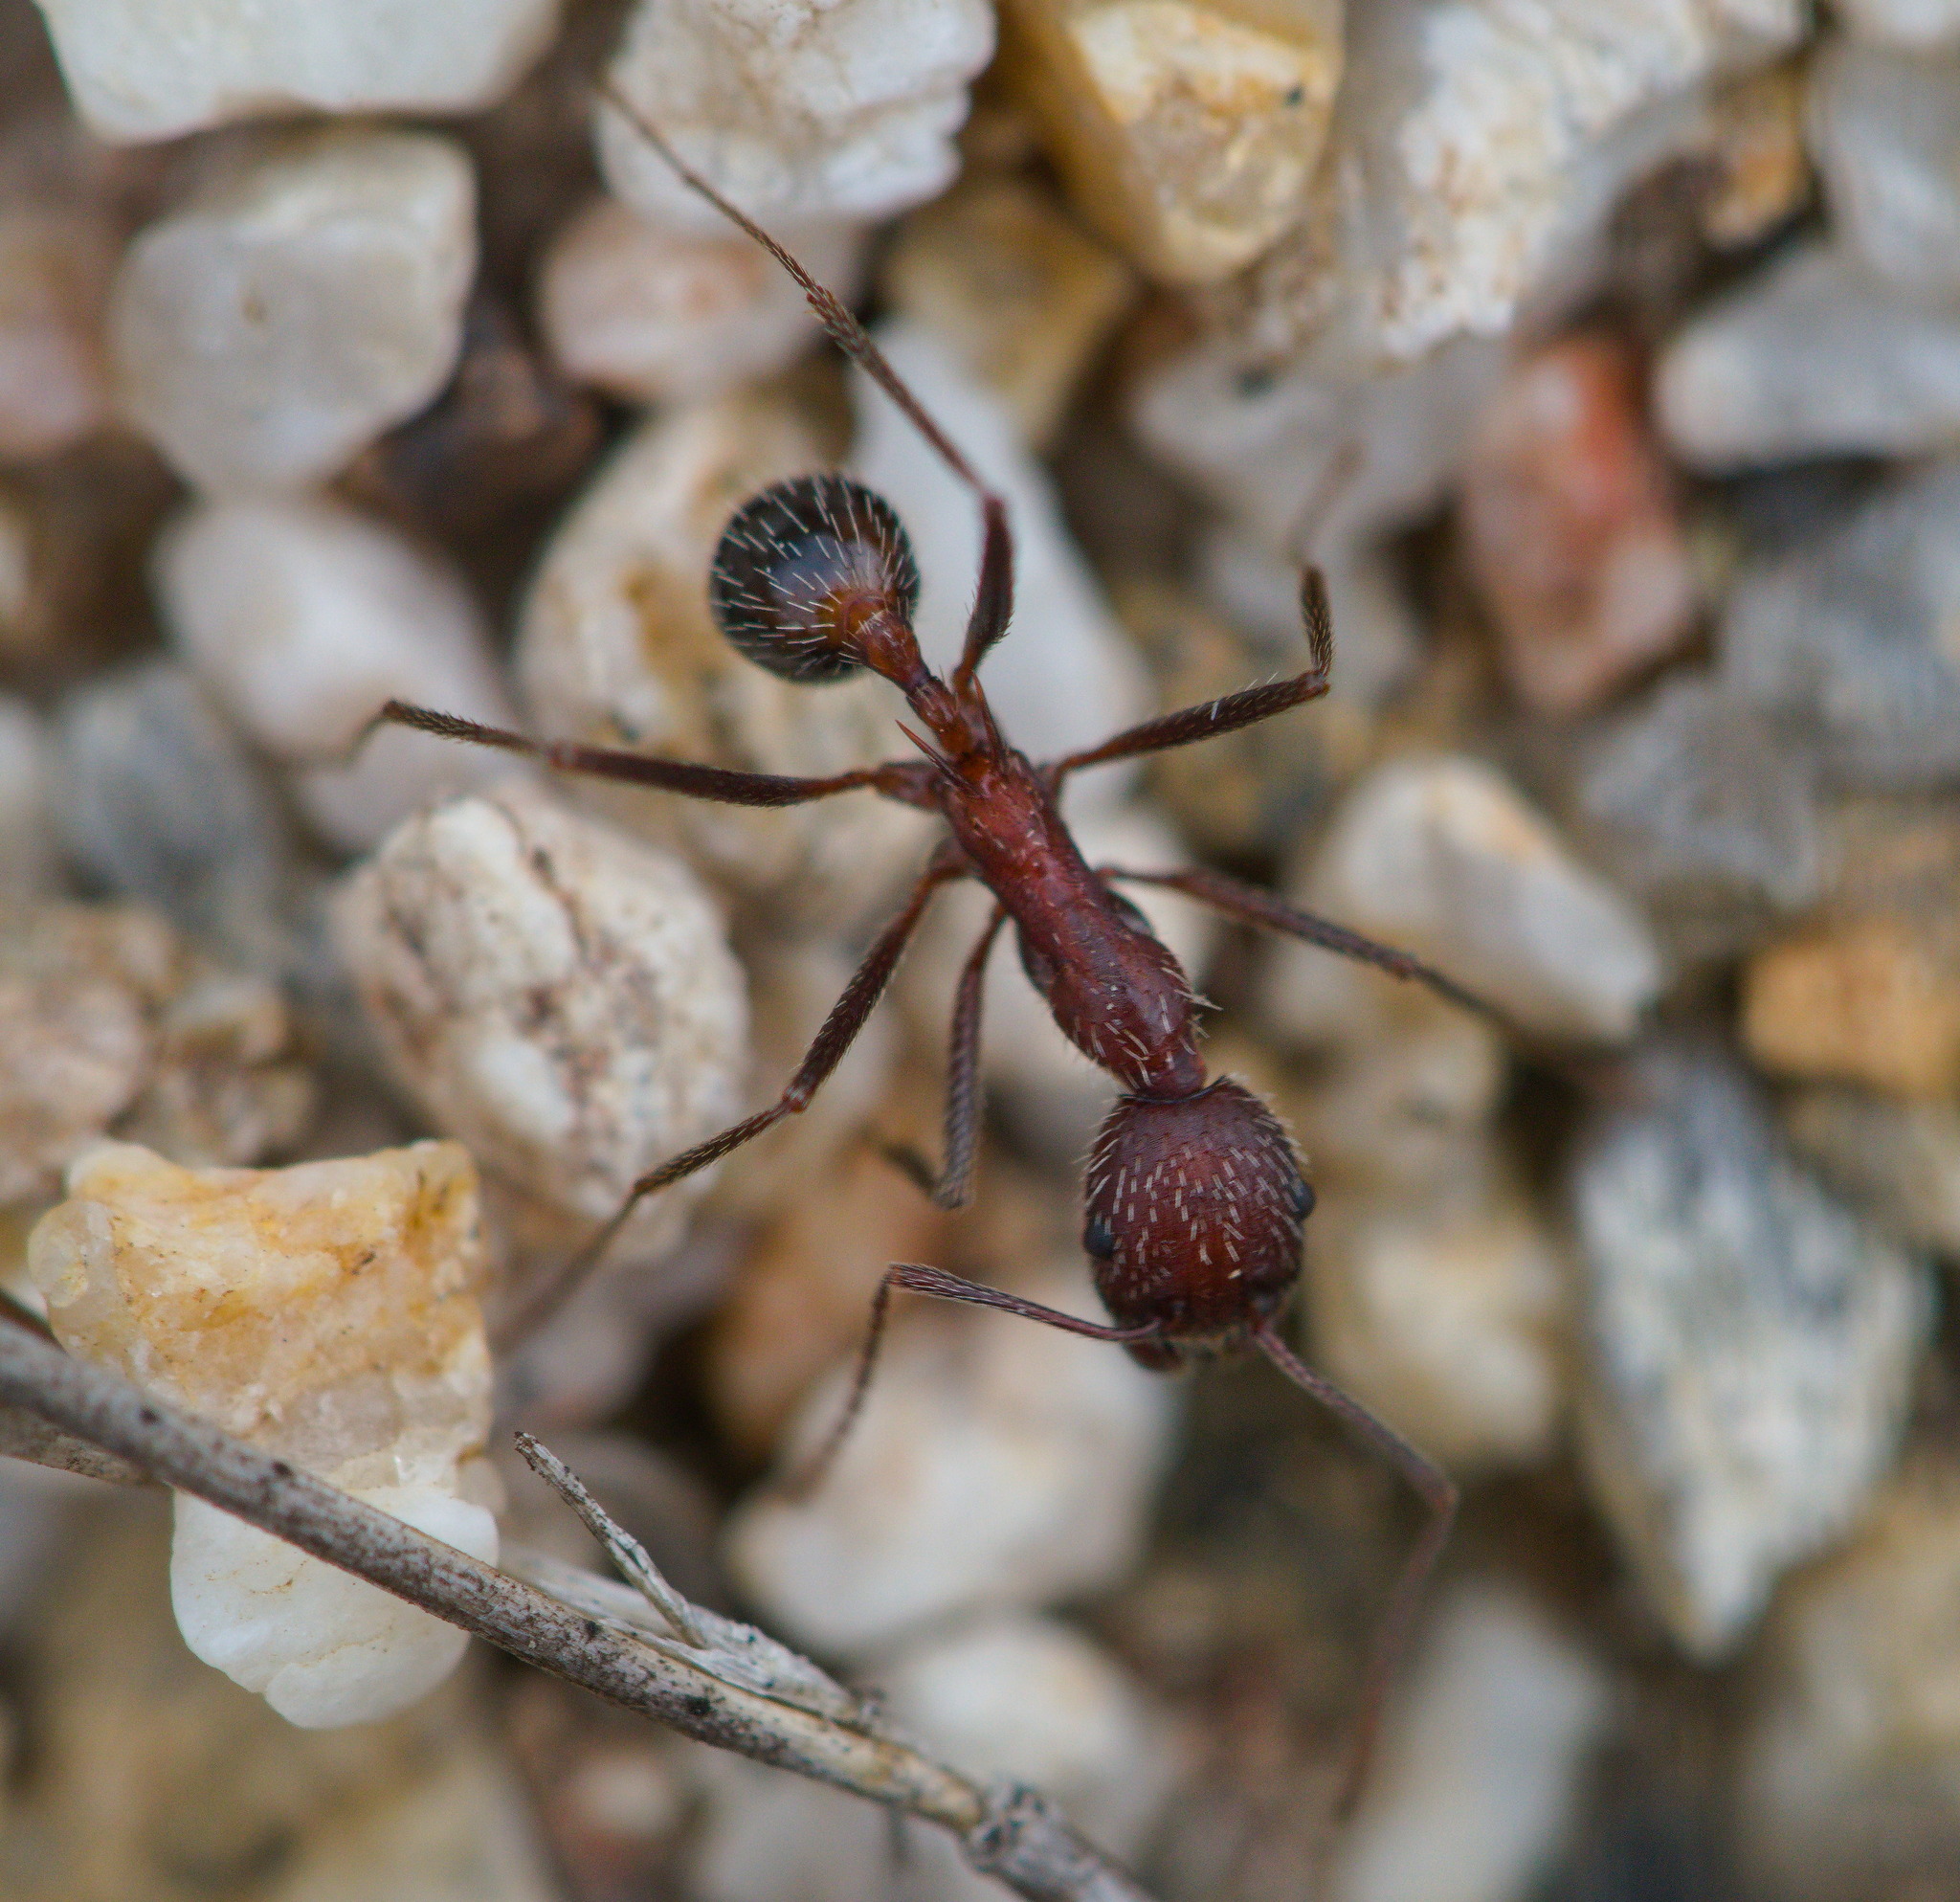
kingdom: Animalia
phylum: Arthropoda
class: Insecta
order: Hymenoptera
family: Formicidae
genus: Novomessor
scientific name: Novomessor albisetosa
